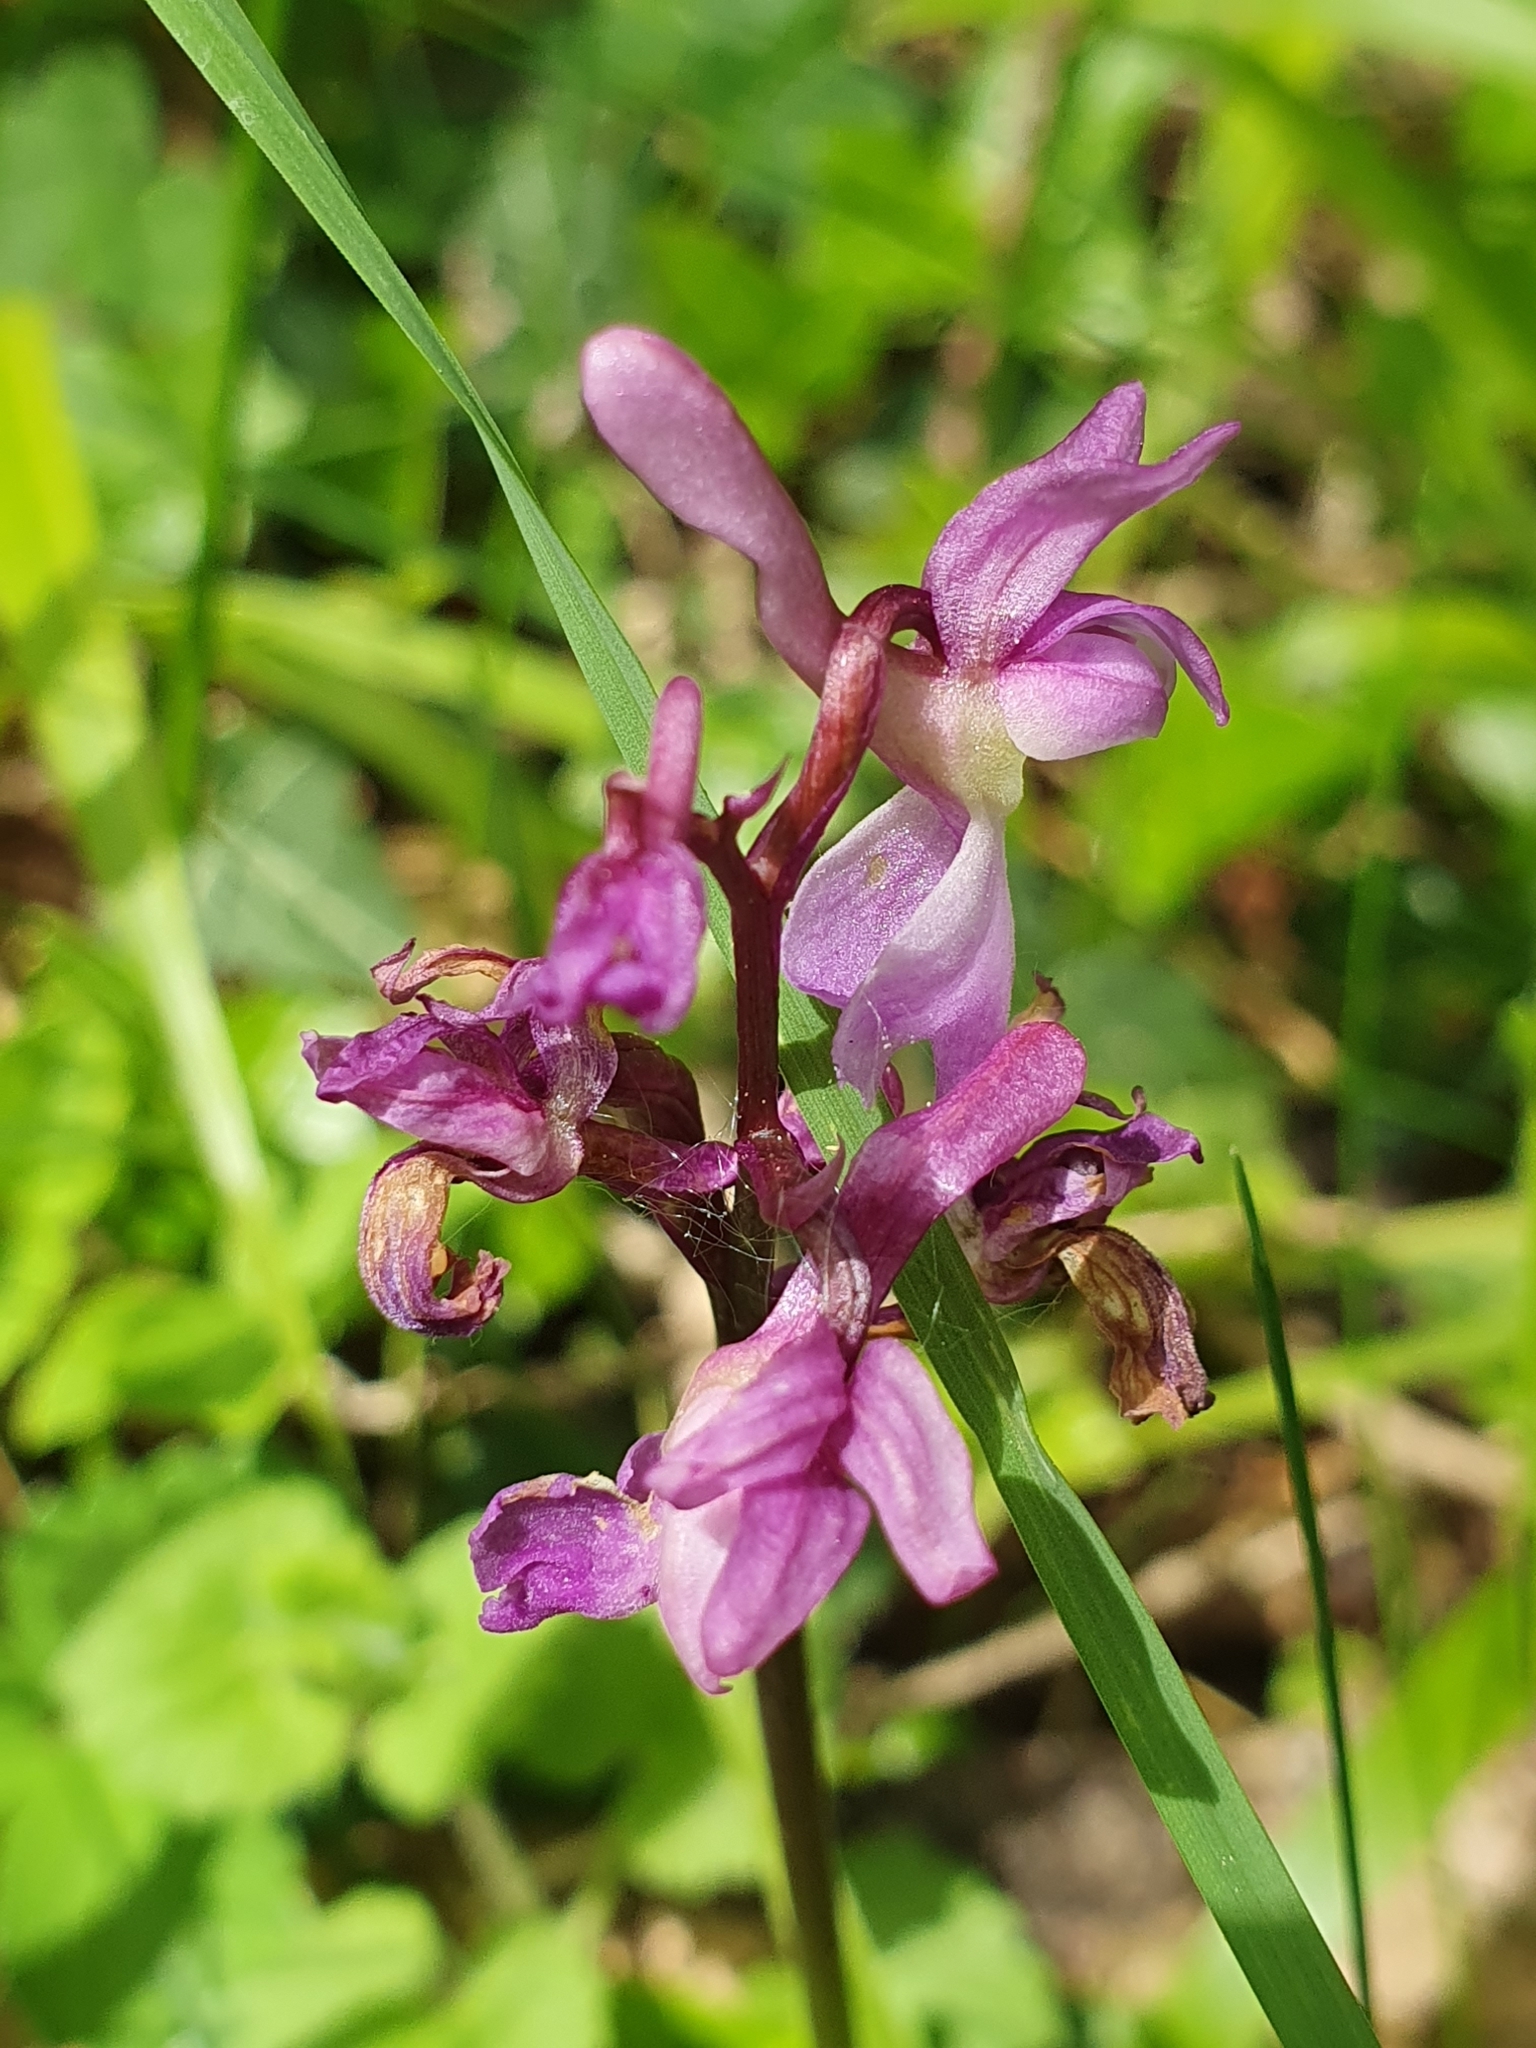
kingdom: Plantae
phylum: Tracheophyta
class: Liliopsida
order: Asparagales
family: Orchidaceae
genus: Anacamptis
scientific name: Anacamptis morio
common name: Green-winged orchid
